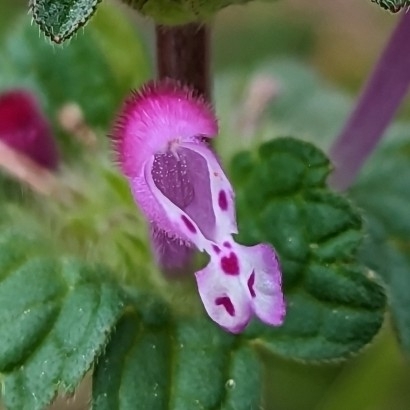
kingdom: Plantae
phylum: Tracheophyta
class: Magnoliopsida
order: Lamiales
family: Lamiaceae
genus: Lamium
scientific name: Lamium amplexicaule
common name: Henbit dead-nettle
